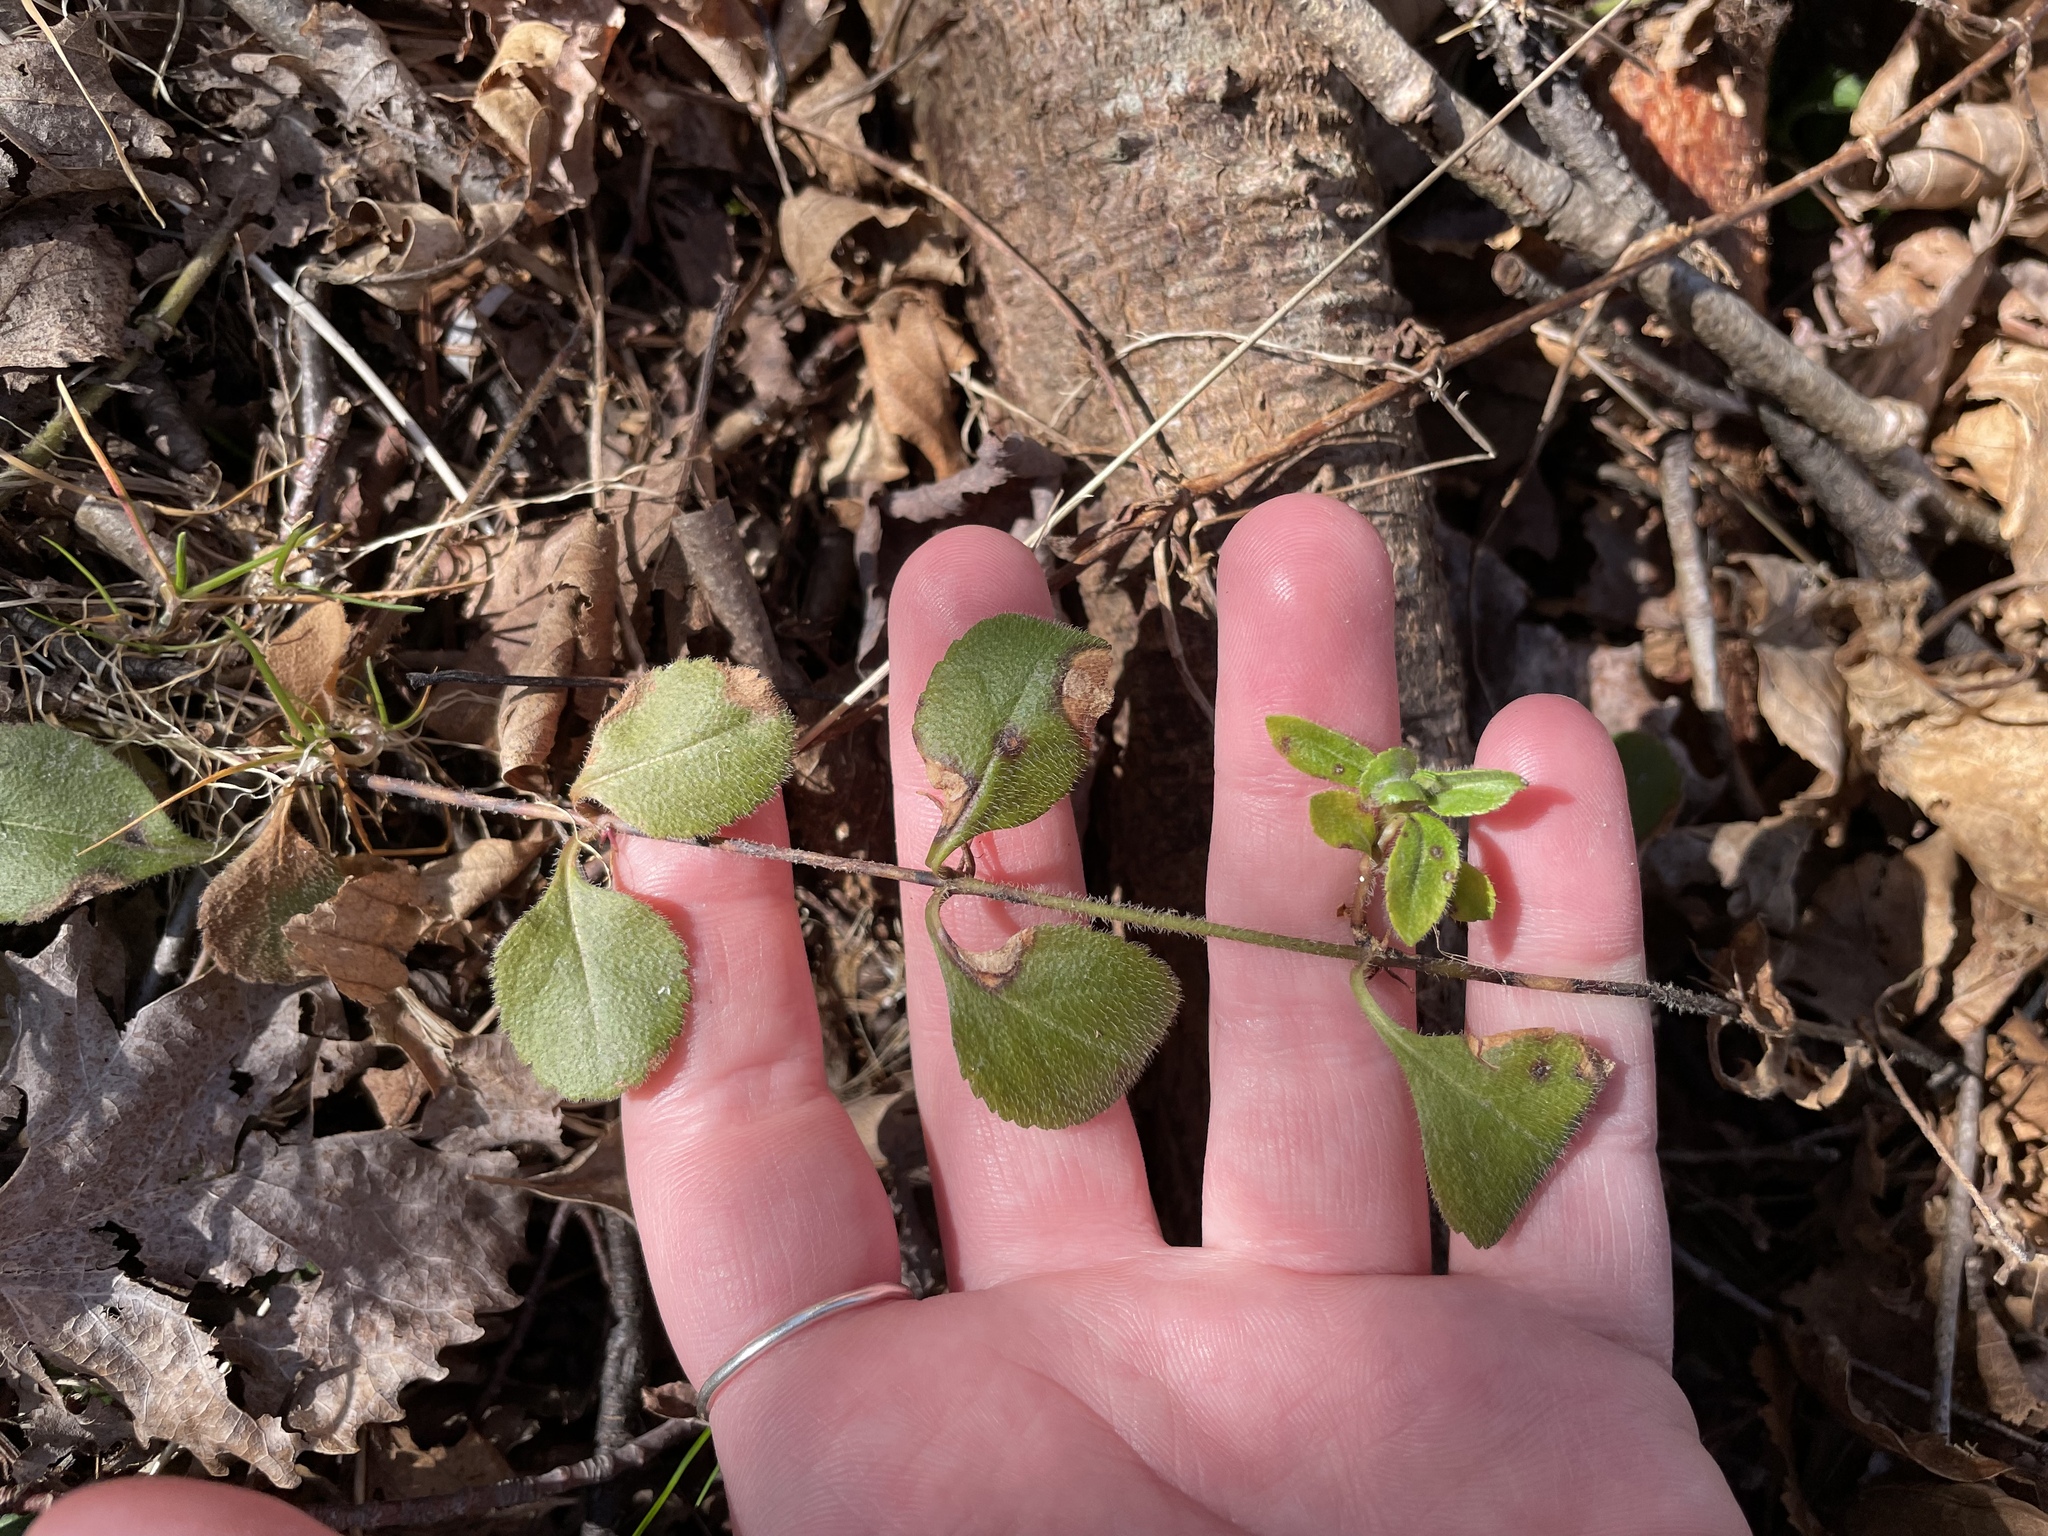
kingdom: Plantae
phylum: Tracheophyta
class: Magnoliopsida
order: Lamiales
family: Plantaginaceae
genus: Veronica
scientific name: Veronica officinalis
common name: Common speedwell
